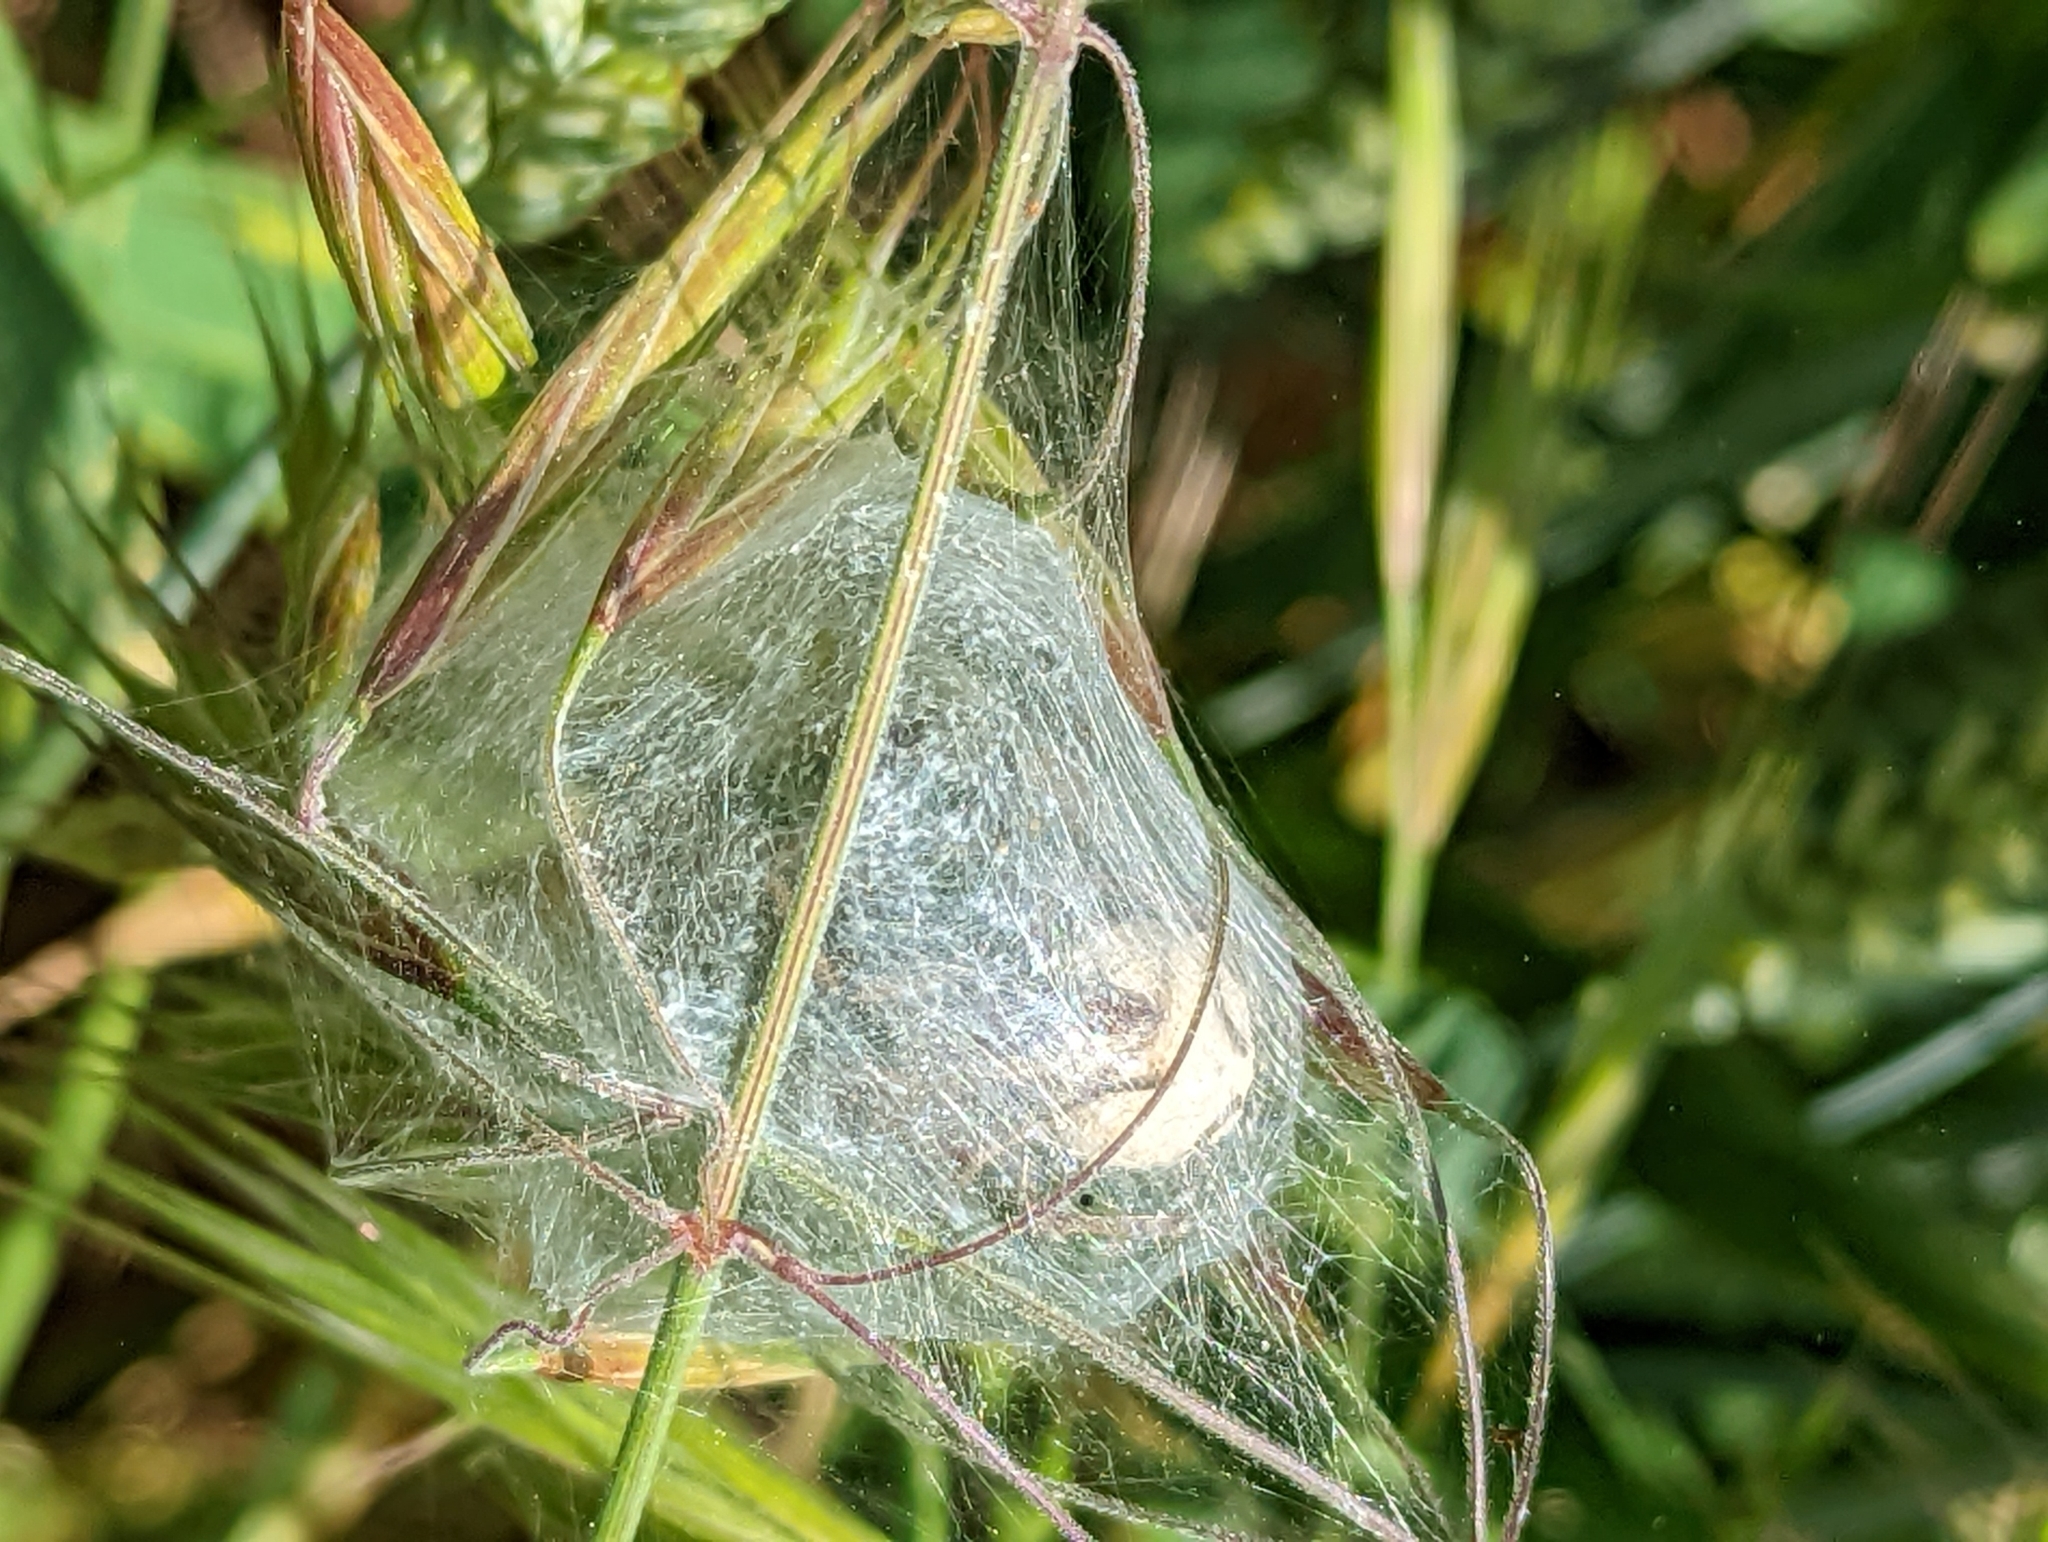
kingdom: Animalia
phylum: Arthropoda
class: Arachnida
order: Araneae
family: Pisauridae
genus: Pisaura
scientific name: Pisaura mirabilis
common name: Tent spider
